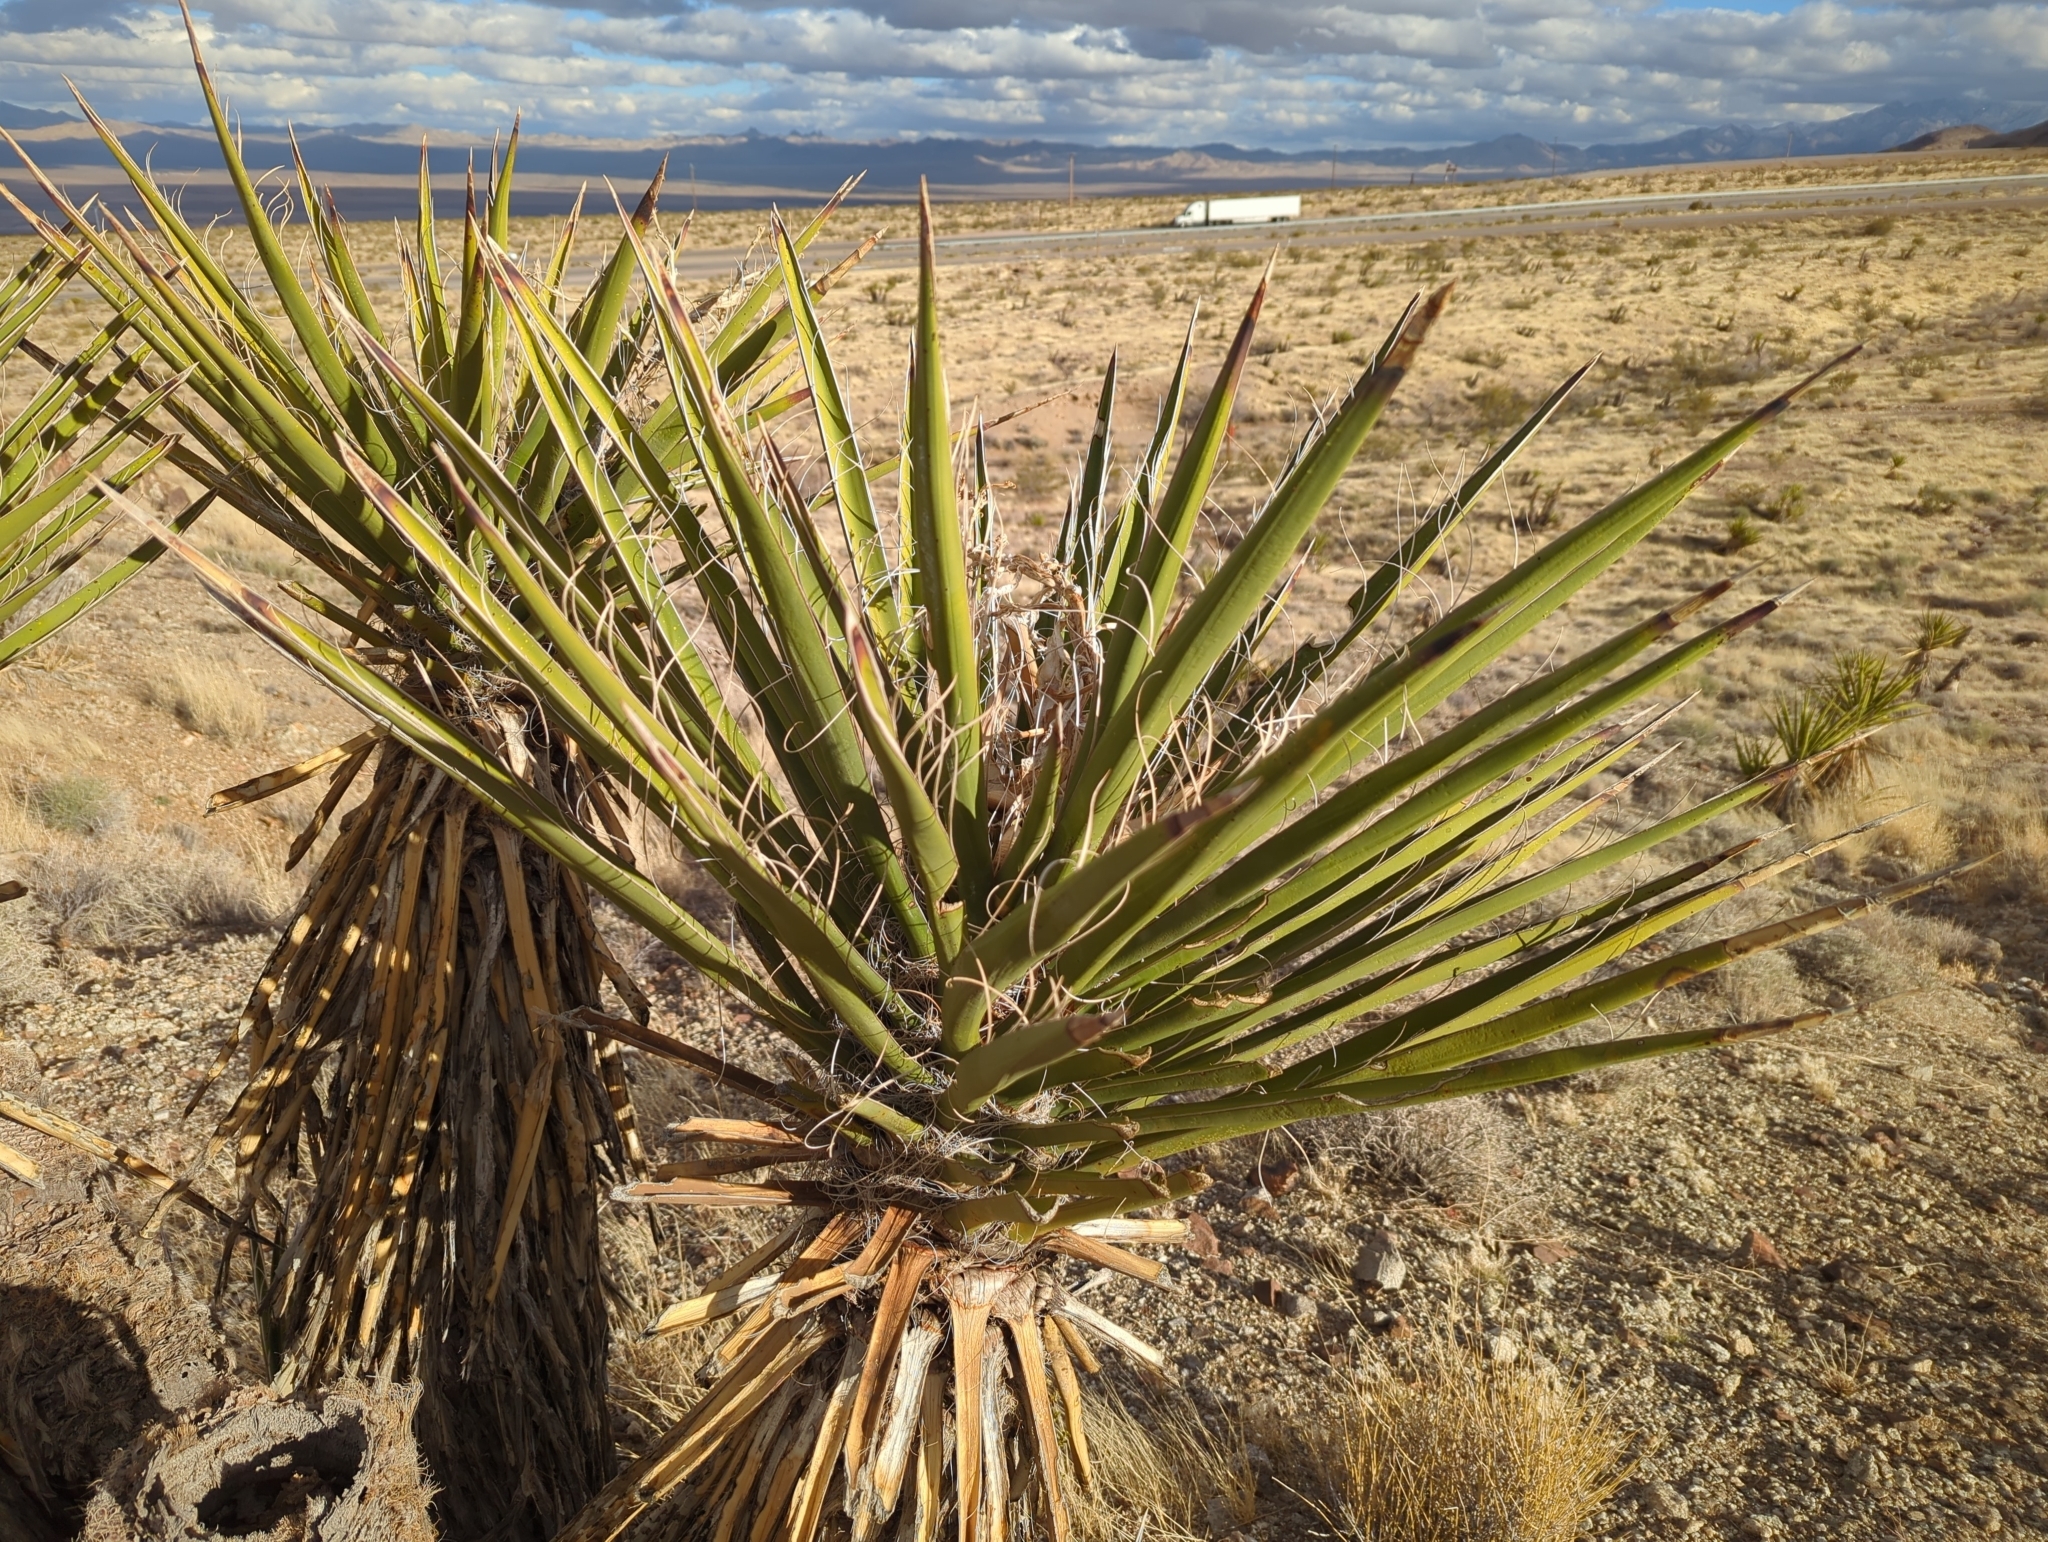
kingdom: Plantae
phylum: Tracheophyta
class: Liliopsida
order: Asparagales
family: Asparagaceae
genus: Yucca
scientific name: Yucca schidigera
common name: Mojave yucca
